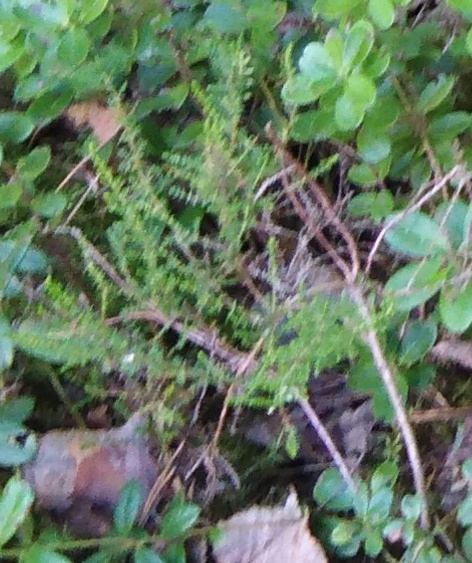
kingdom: Plantae
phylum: Tracheophyta
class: Magnoliopsida
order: Ericales
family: Ericaceae
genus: Calluna
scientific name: Calluna vulgaris
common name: Heather
